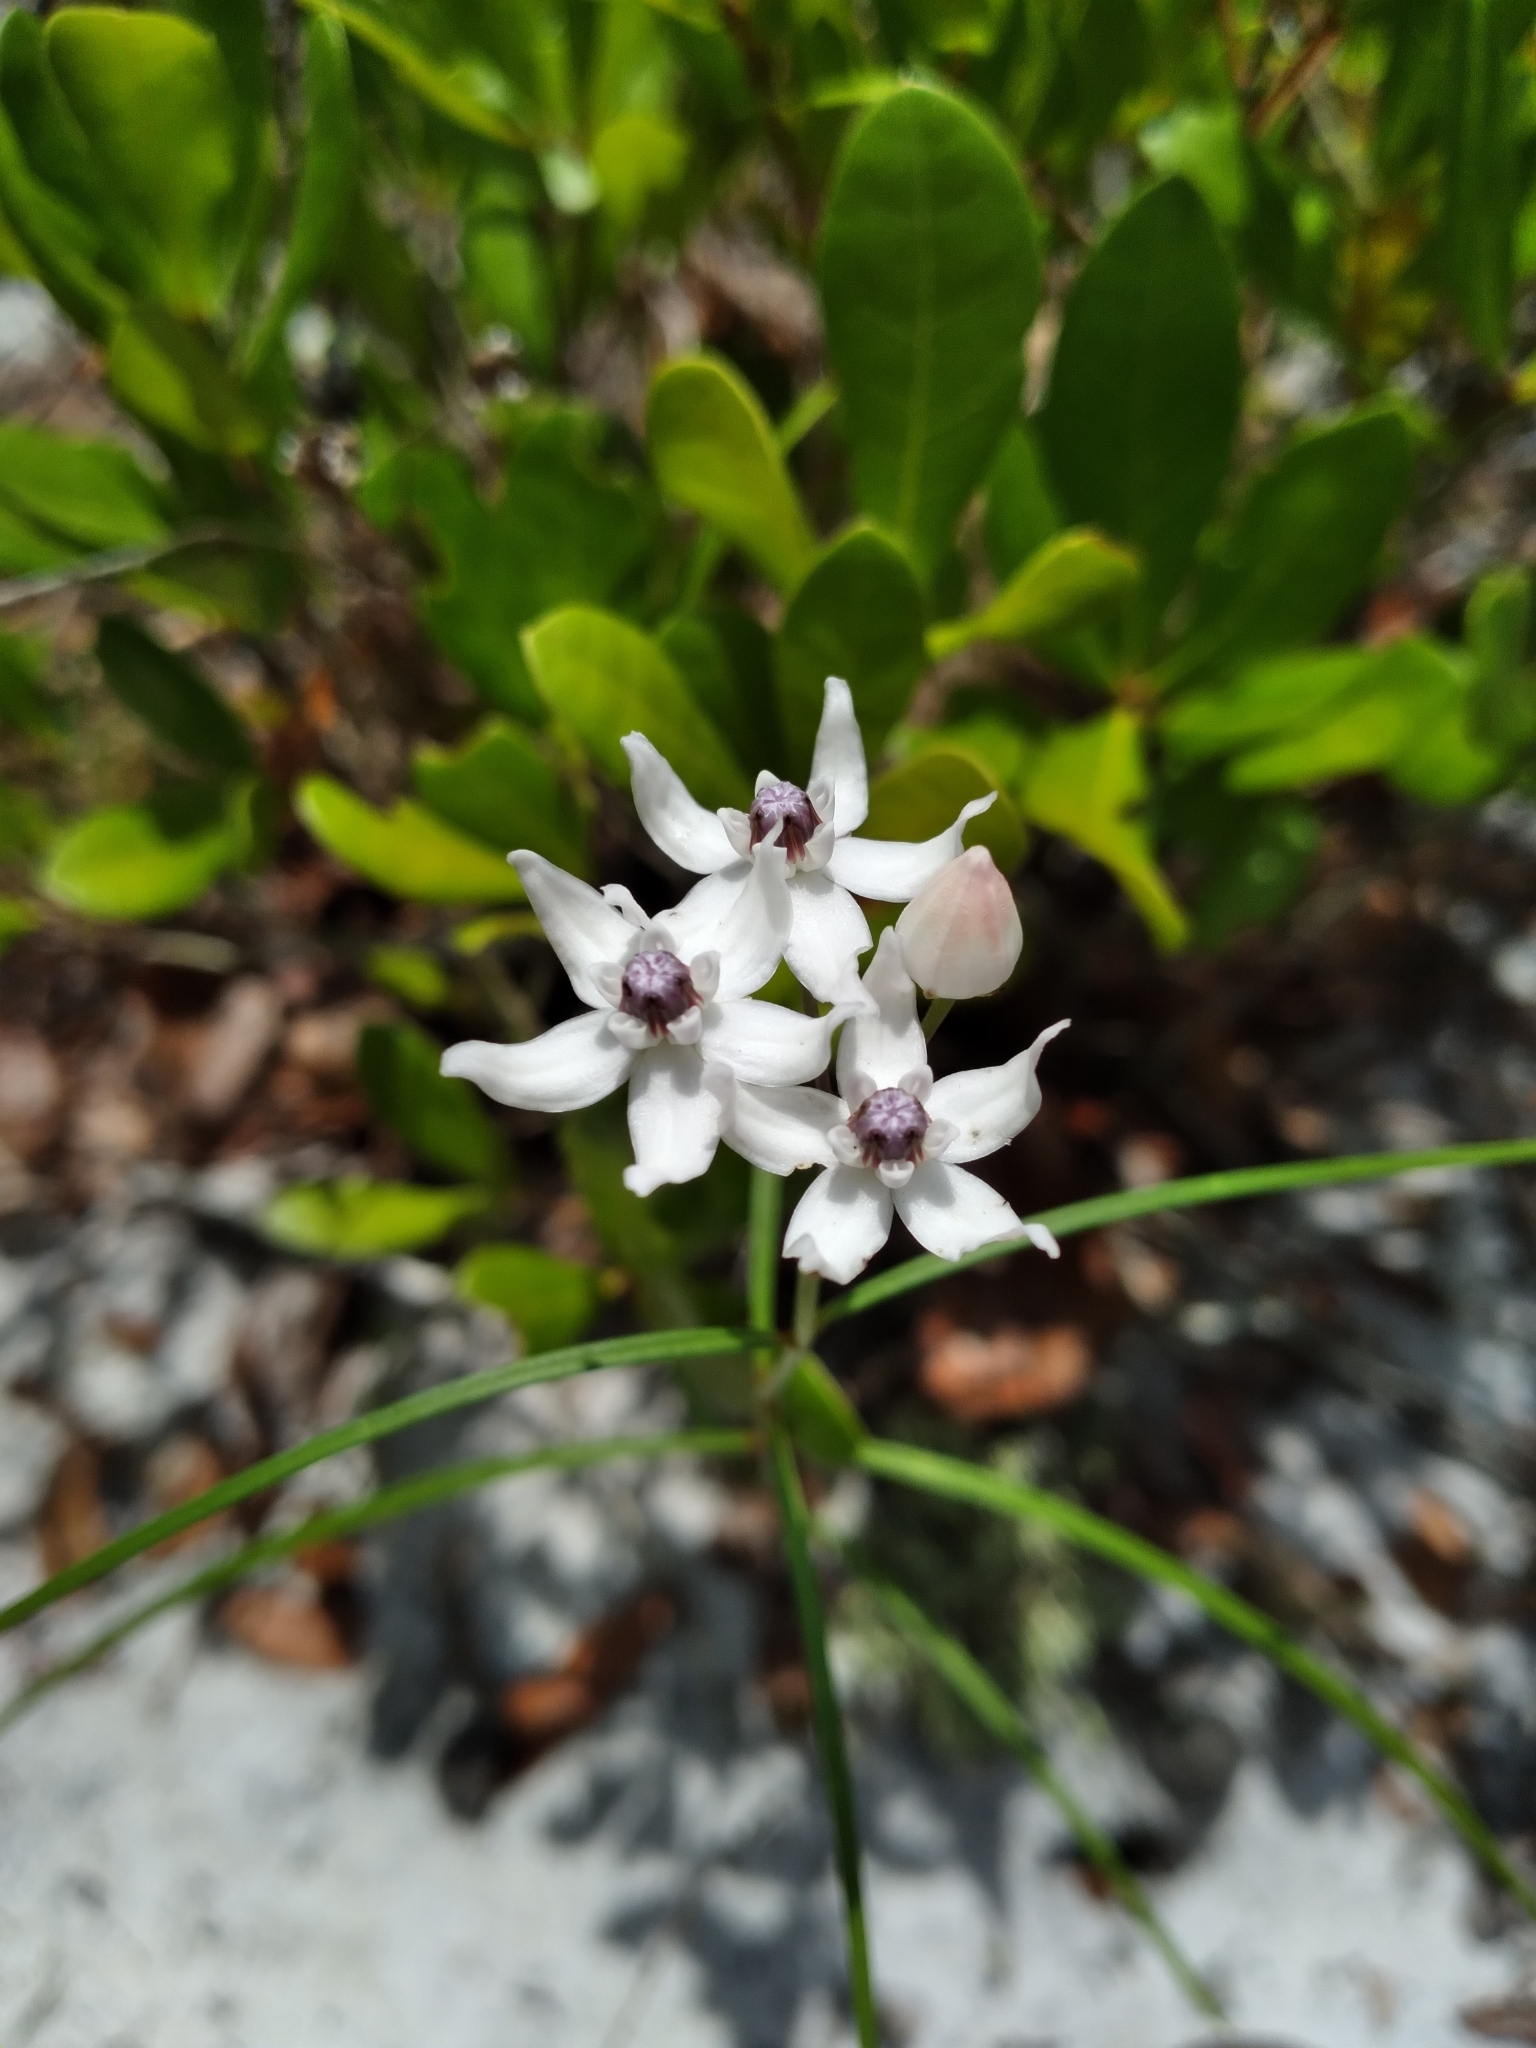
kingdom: Plantae
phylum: Tracheophyta
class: Magnoliopsida
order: Gentianales
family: Apocynaceae
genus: Asclepias
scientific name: Asclepias feayi
